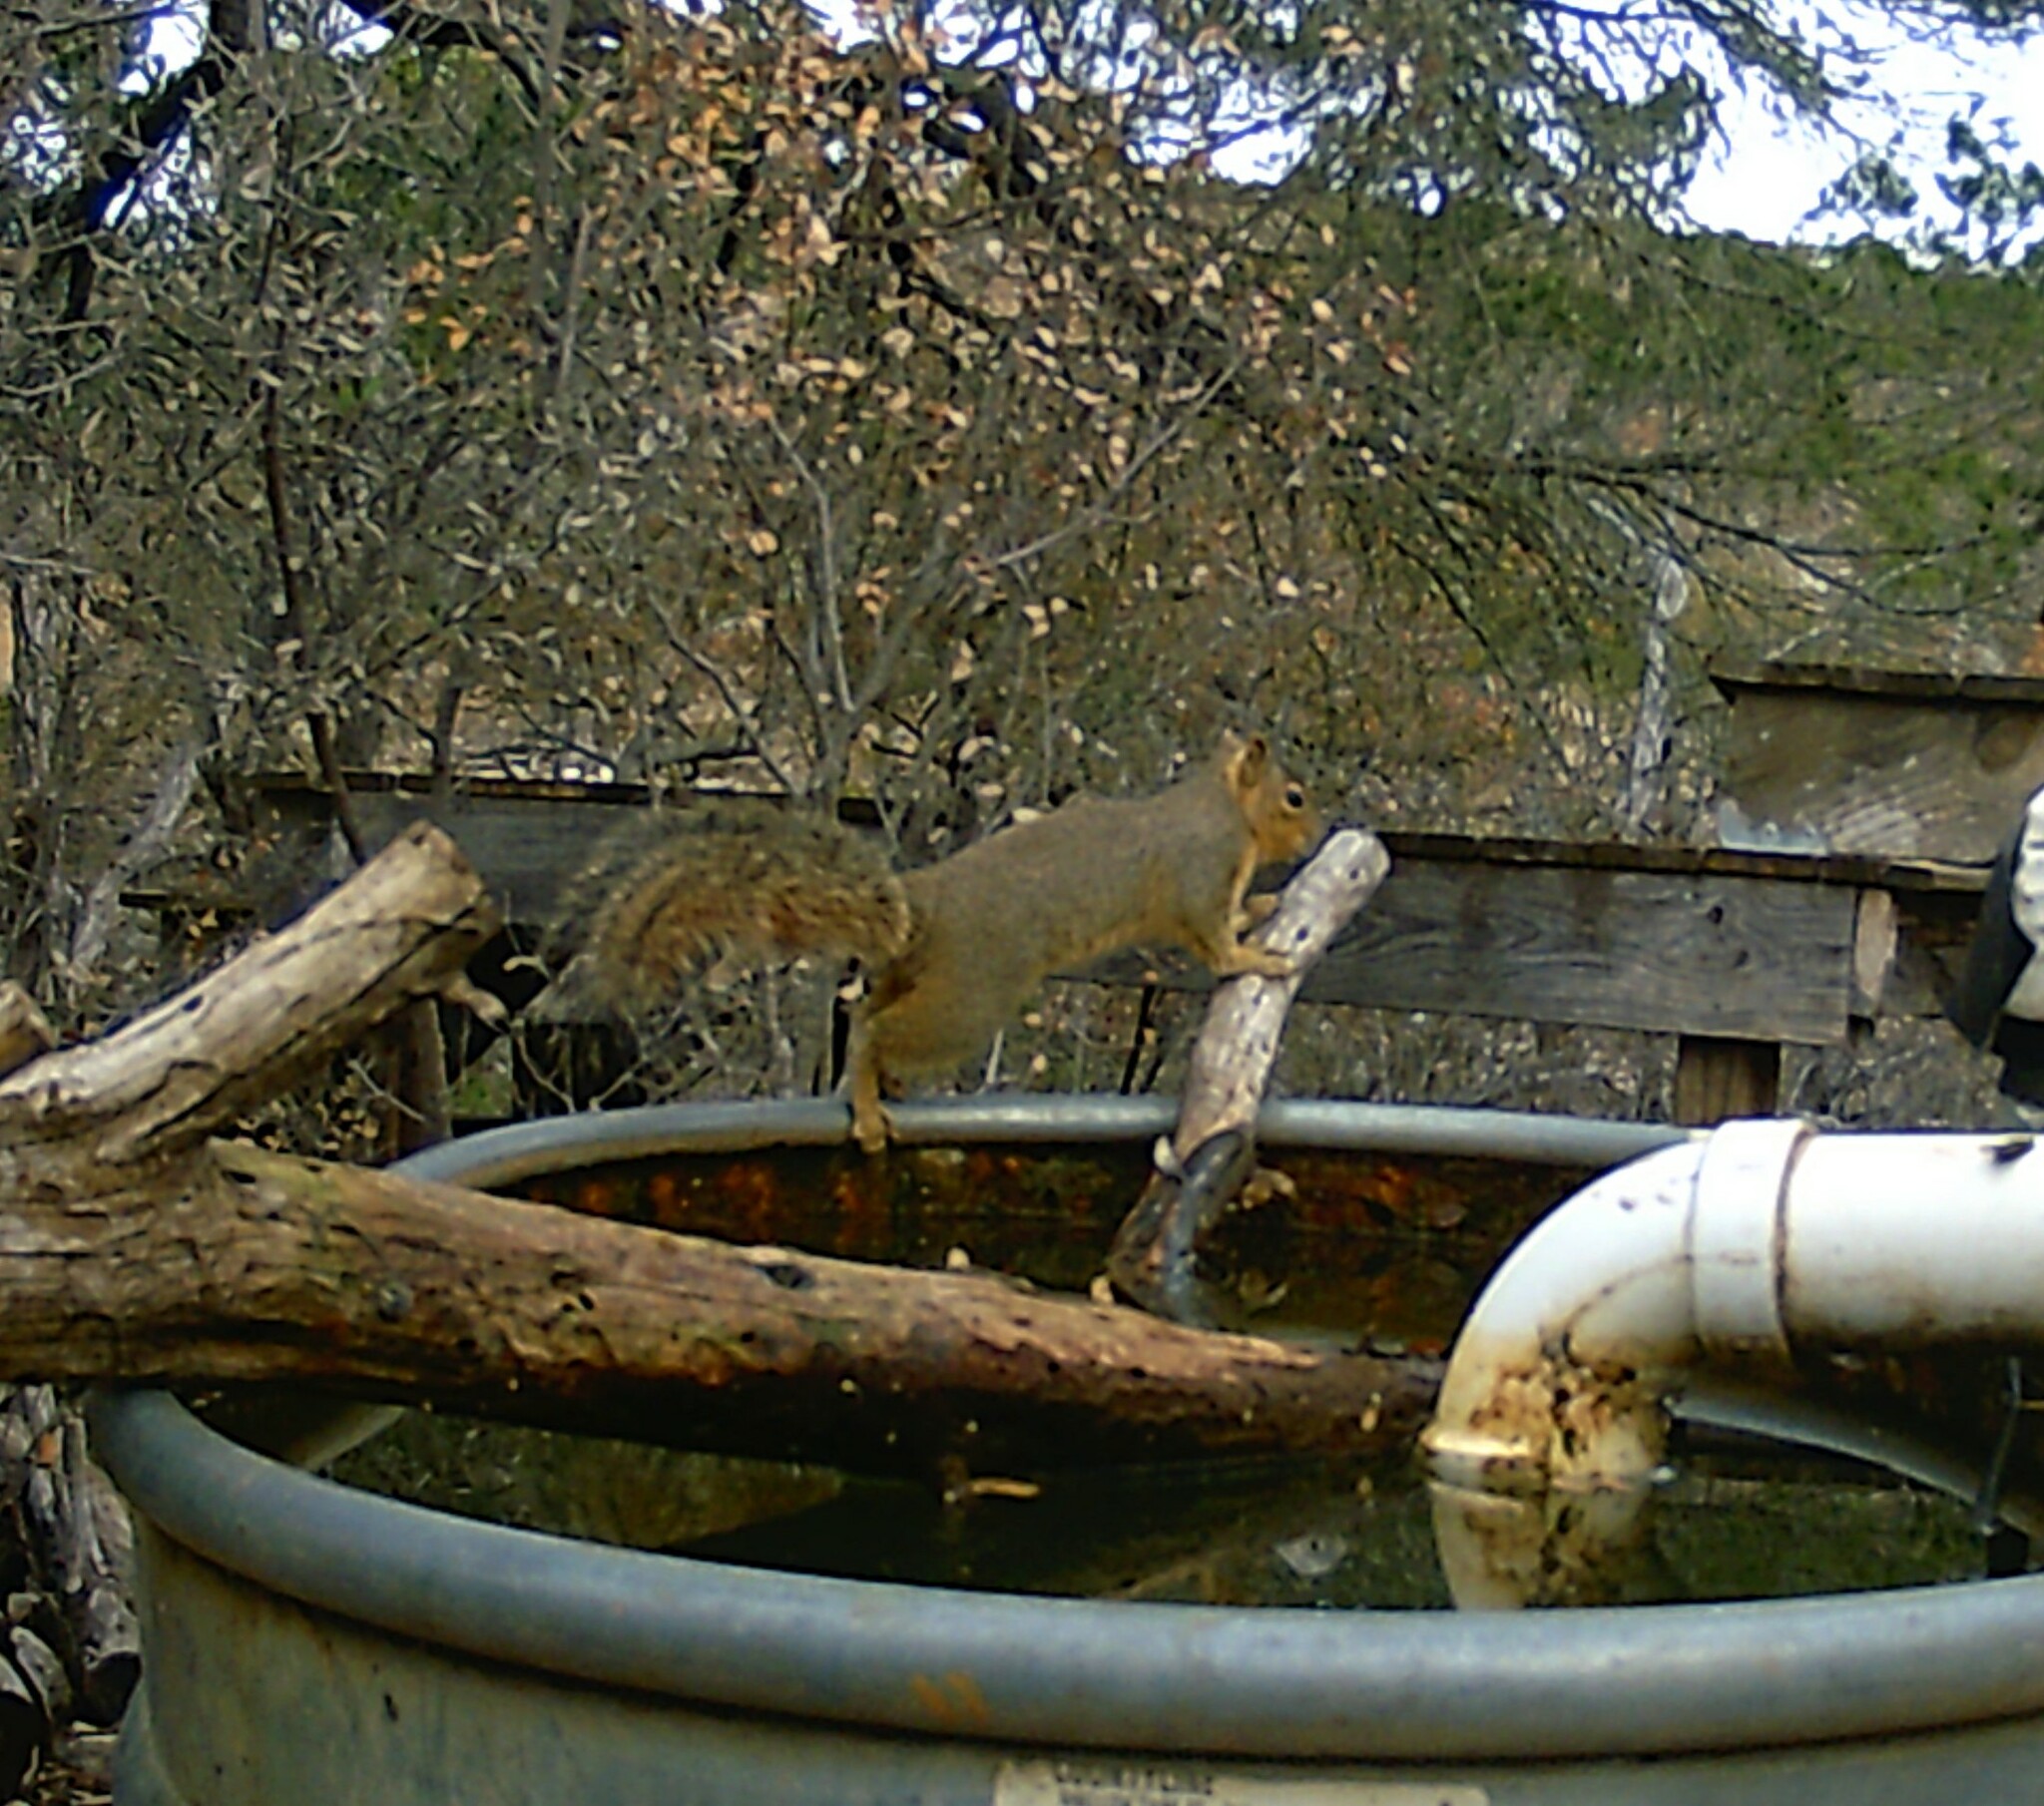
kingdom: Animalia
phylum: Chordata
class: Mammalia
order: Rodentia
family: Sciuridae
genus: Sciurus
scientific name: Sciurus niger
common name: Fox squirrel
